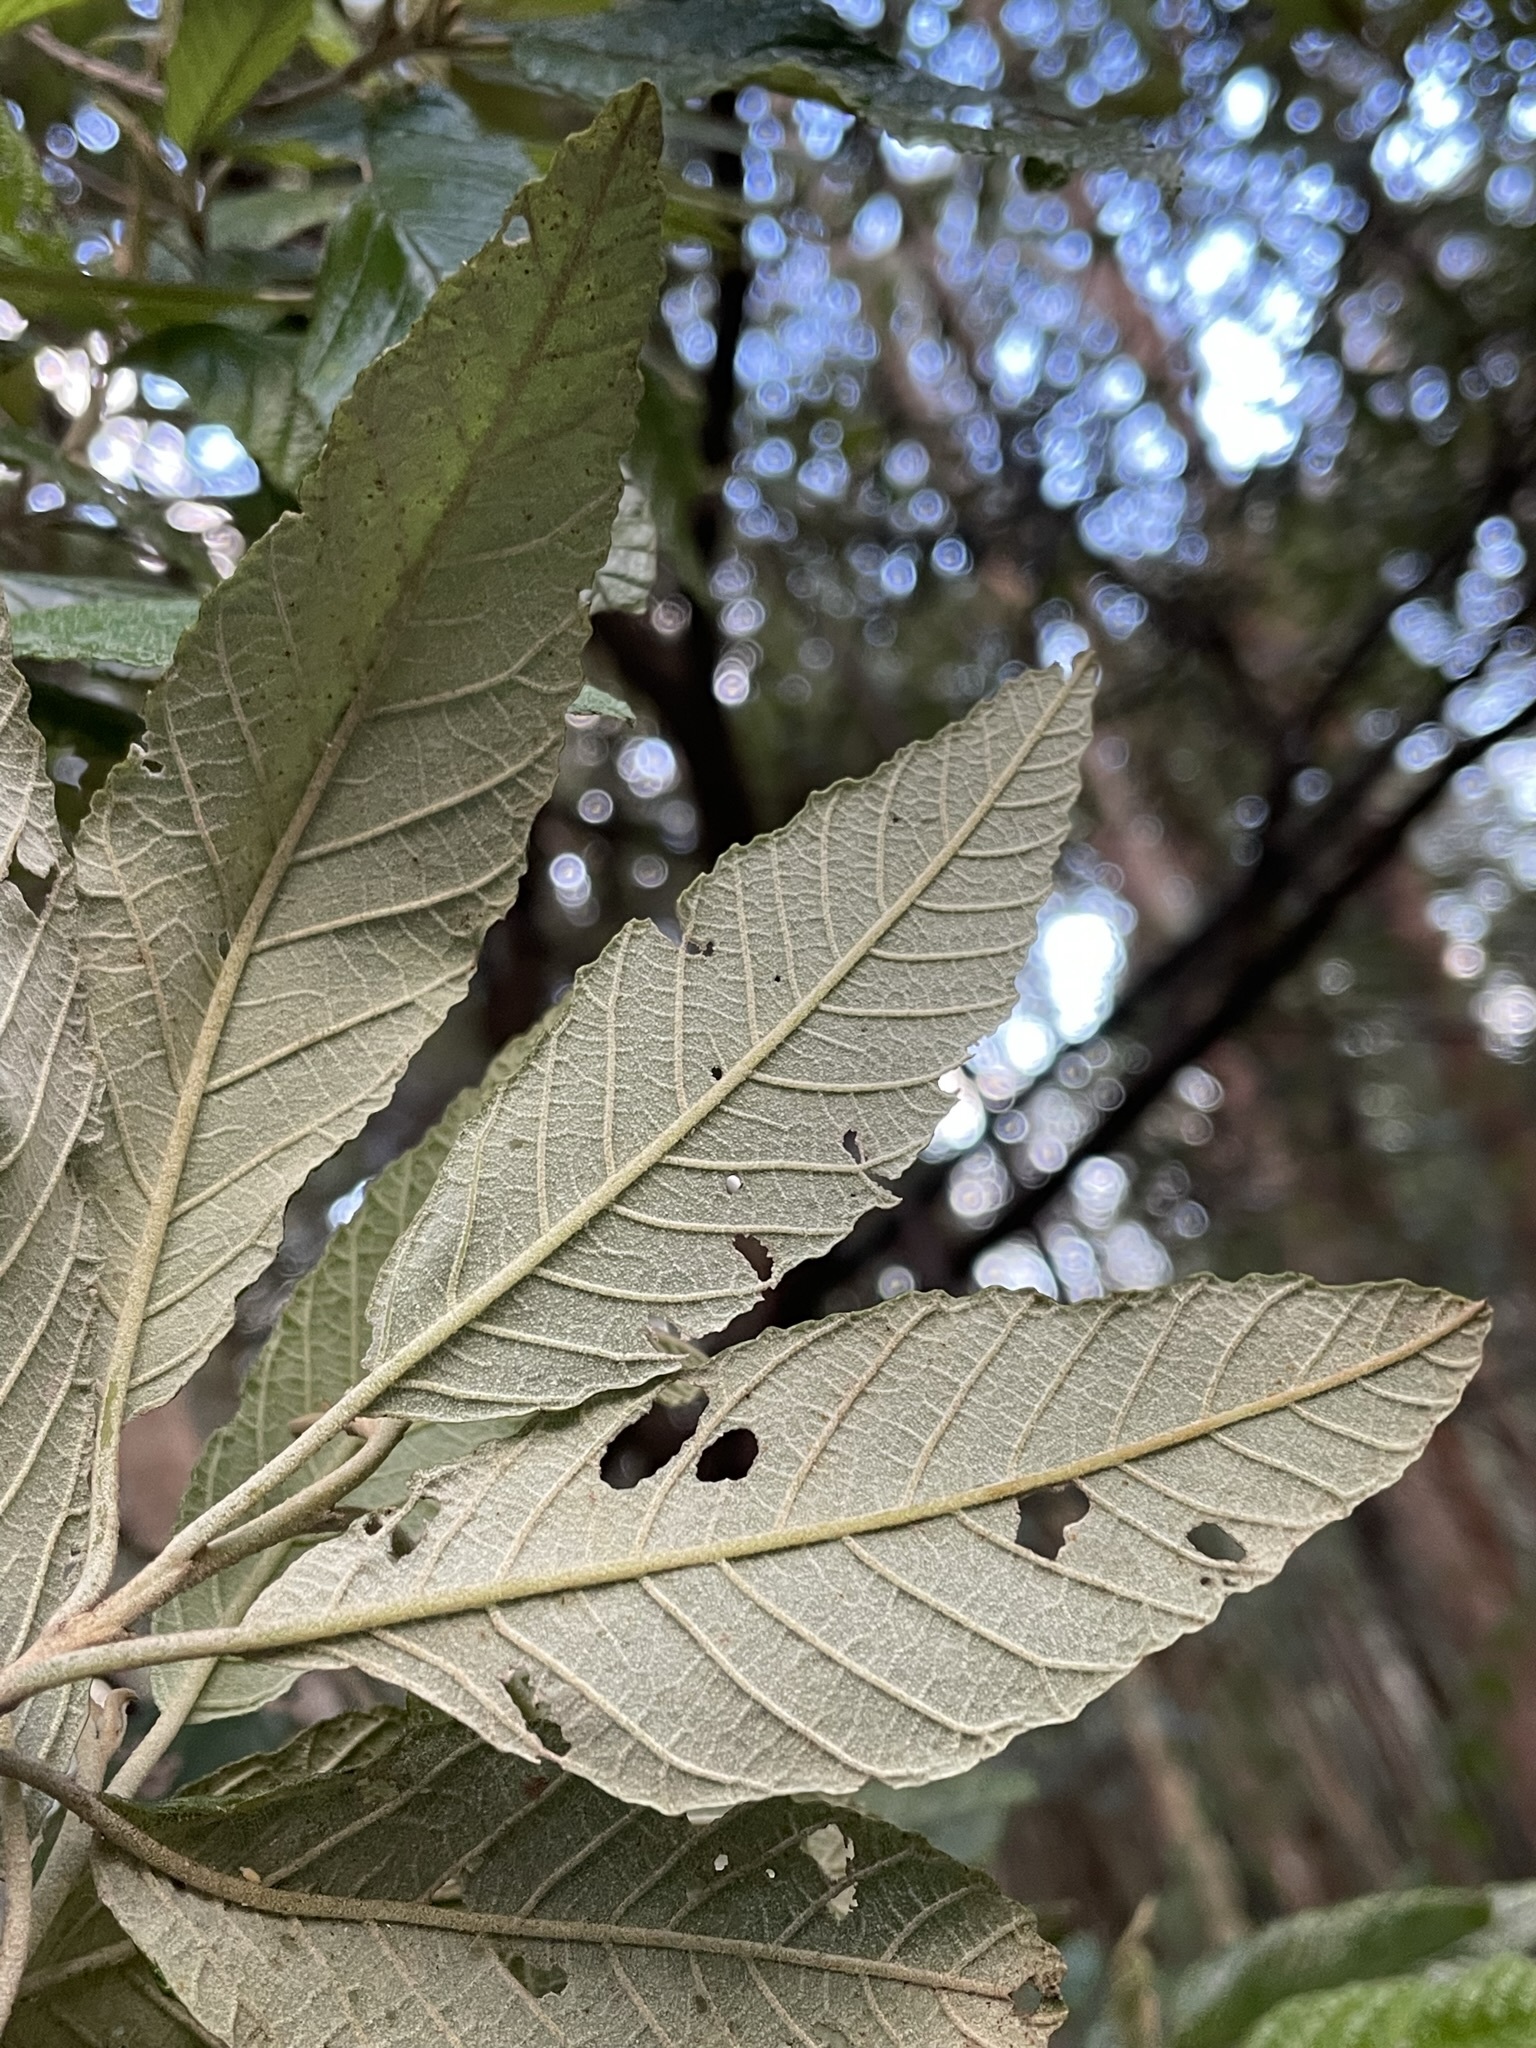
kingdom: Plantae
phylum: Tracheophyta
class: Magnoliopsida
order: Rosales
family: Rhamnaceae
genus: Pomaderris
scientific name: Pomaderris apetala
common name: Hazel pomaderris
